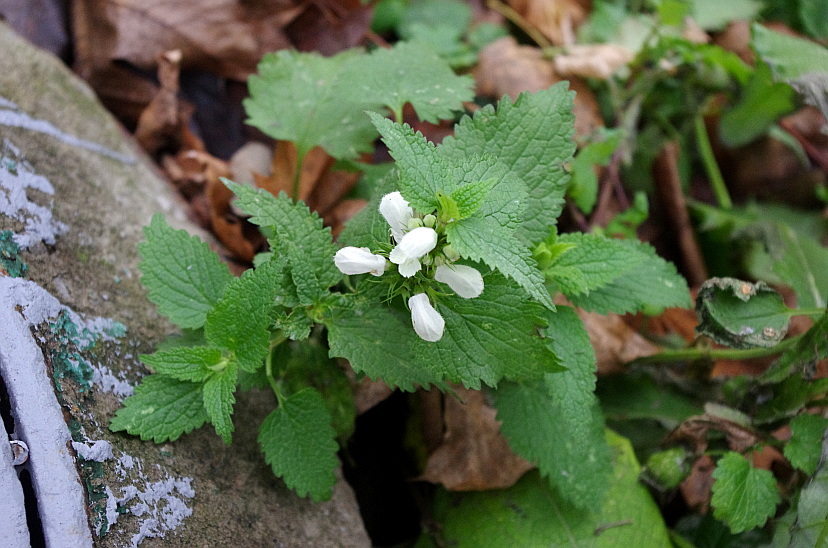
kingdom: Plantae
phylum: Tracheophyta
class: Magnoliopsida
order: Lamiales
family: Lamiaceae
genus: Lamium
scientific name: Lamium album
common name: White dead-nettle
